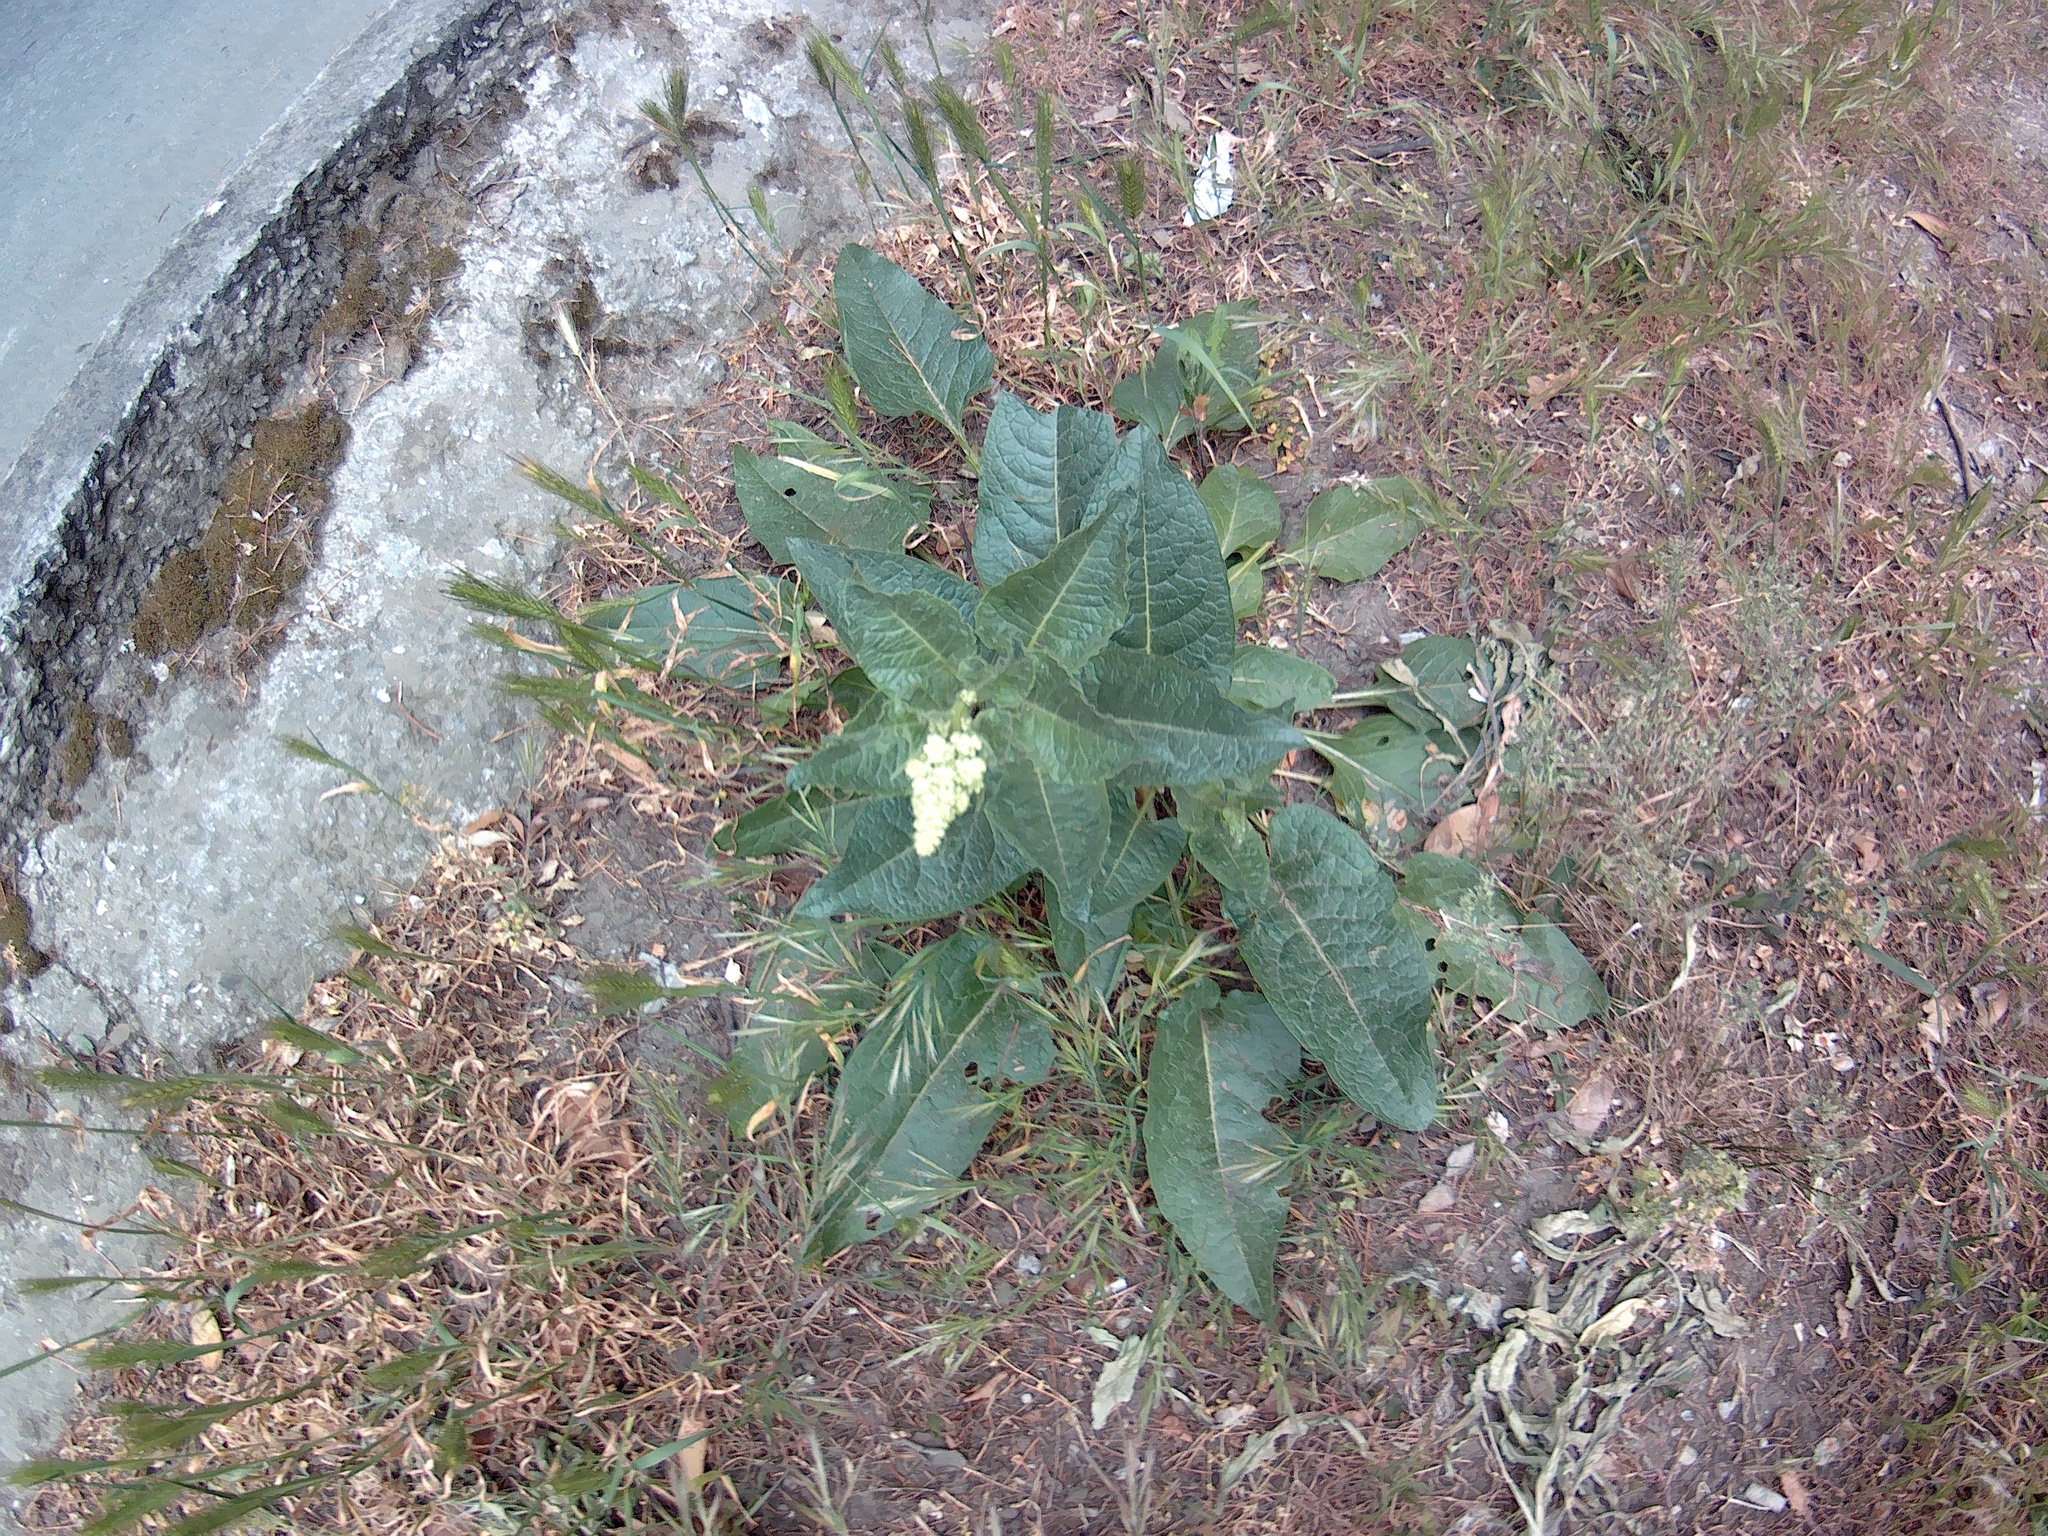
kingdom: Plantae
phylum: Tracheophyta
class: Magnoliopsida
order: Caryophyllales
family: Amaranthaceae
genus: Beta
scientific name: Beta trigyna
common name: Caucasian beet
